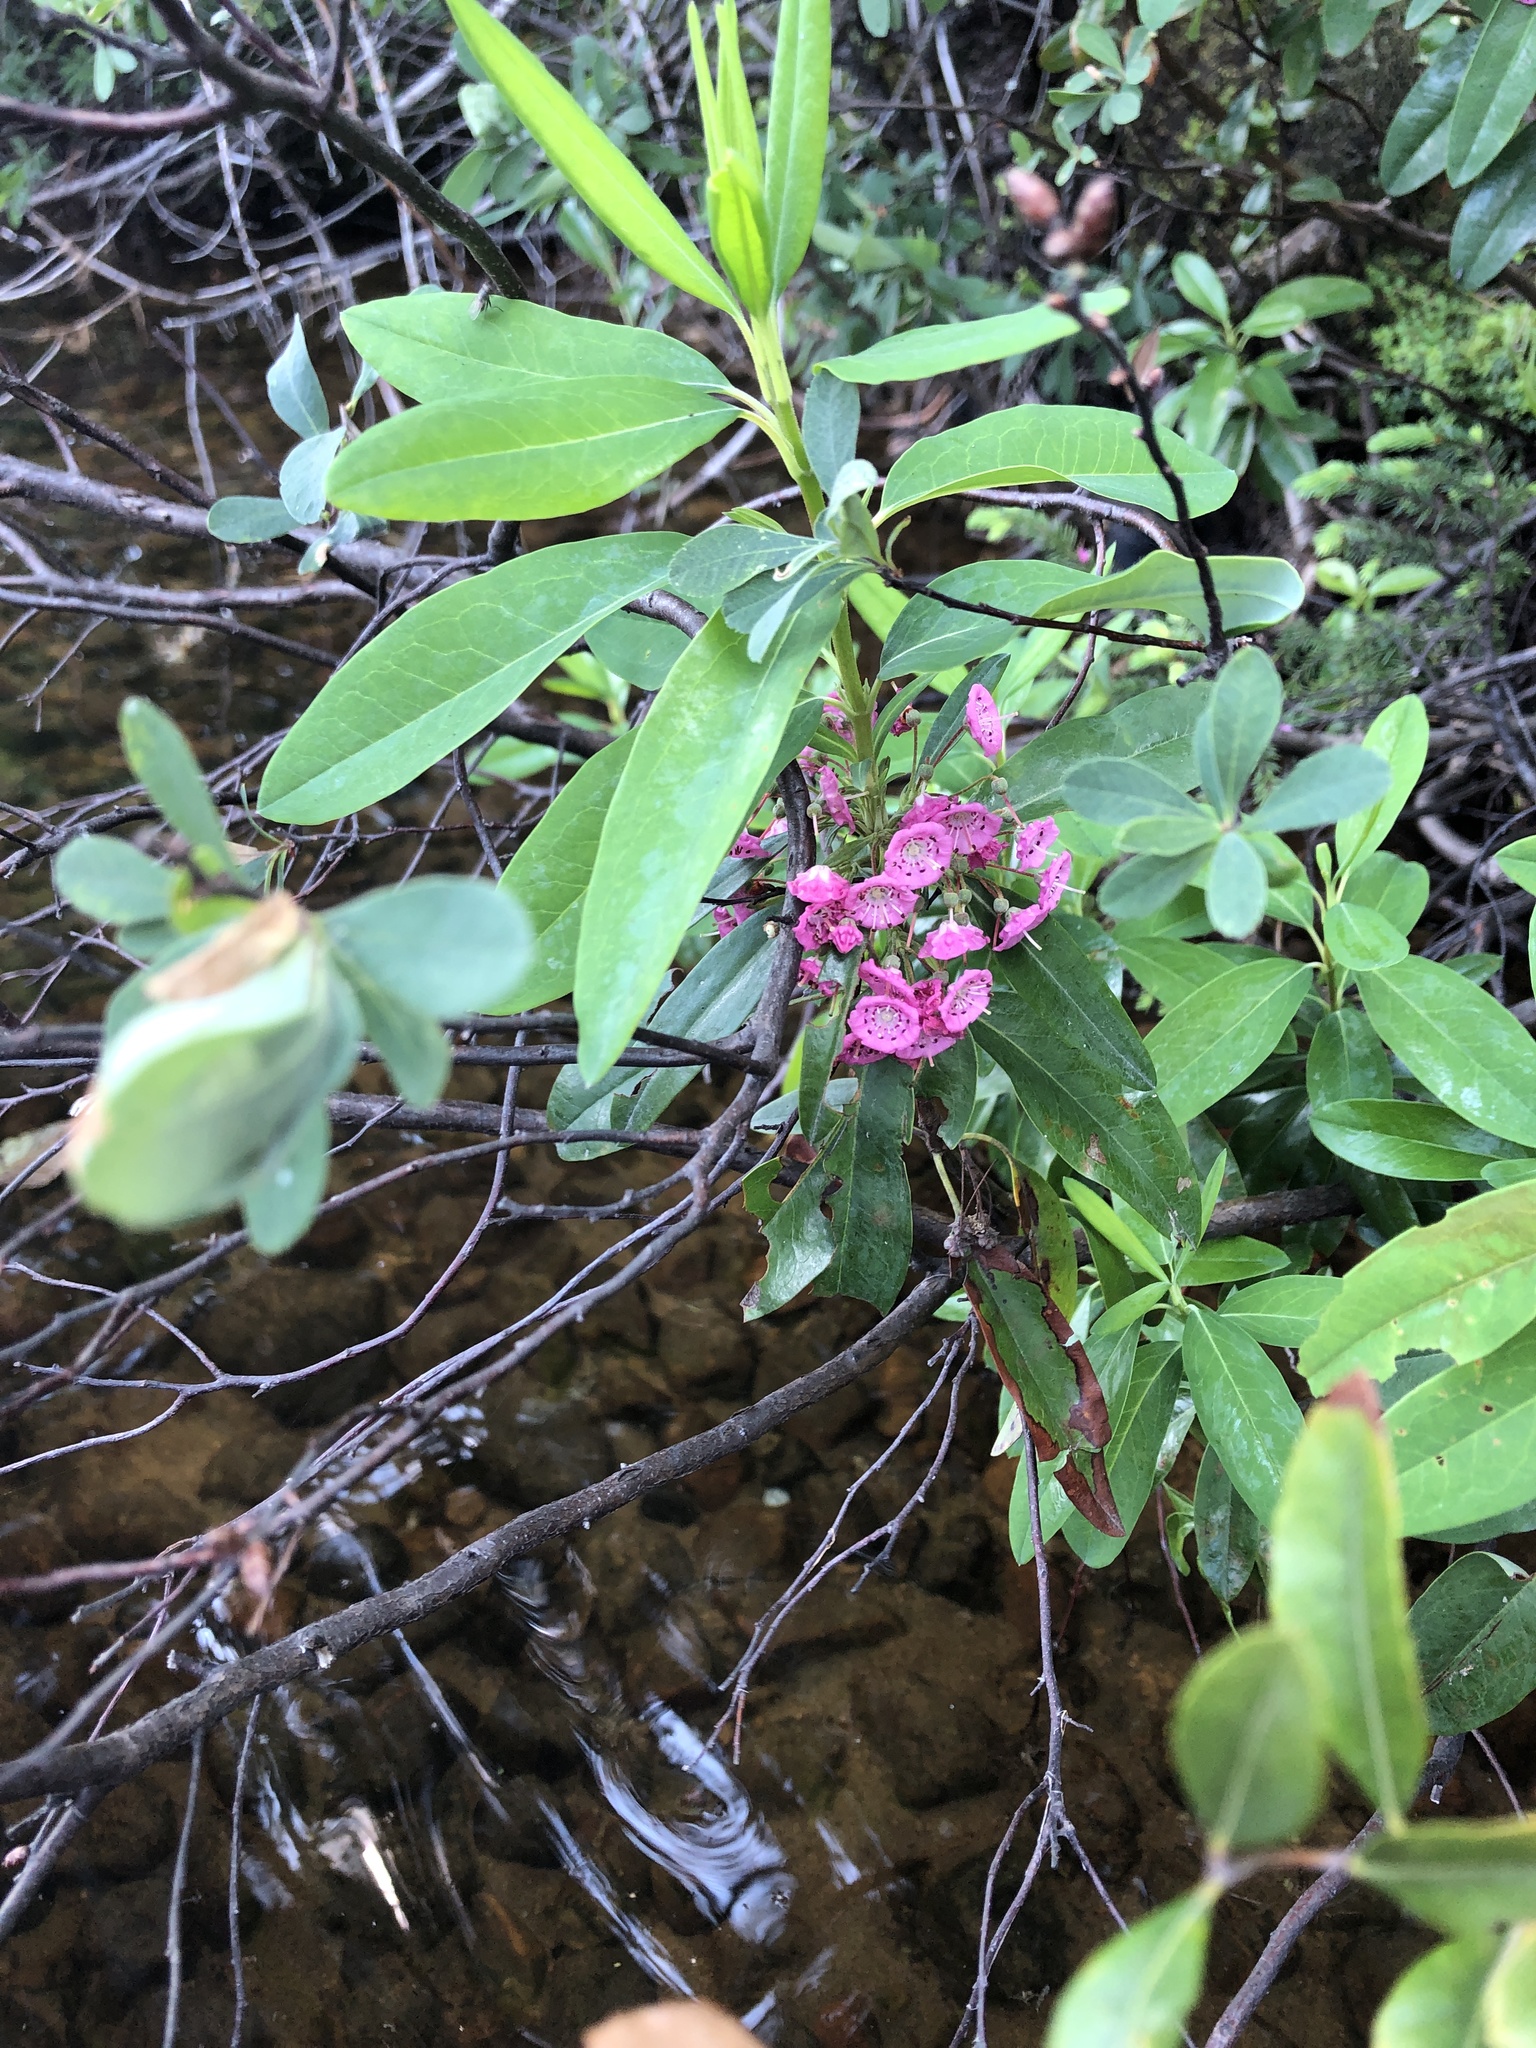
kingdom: Plantae
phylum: Tracheophyta
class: Magnoliopsida
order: Ericales
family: Ericaceae
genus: Kalmia
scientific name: Kalmia angustifolia
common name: Sheep-laurel
